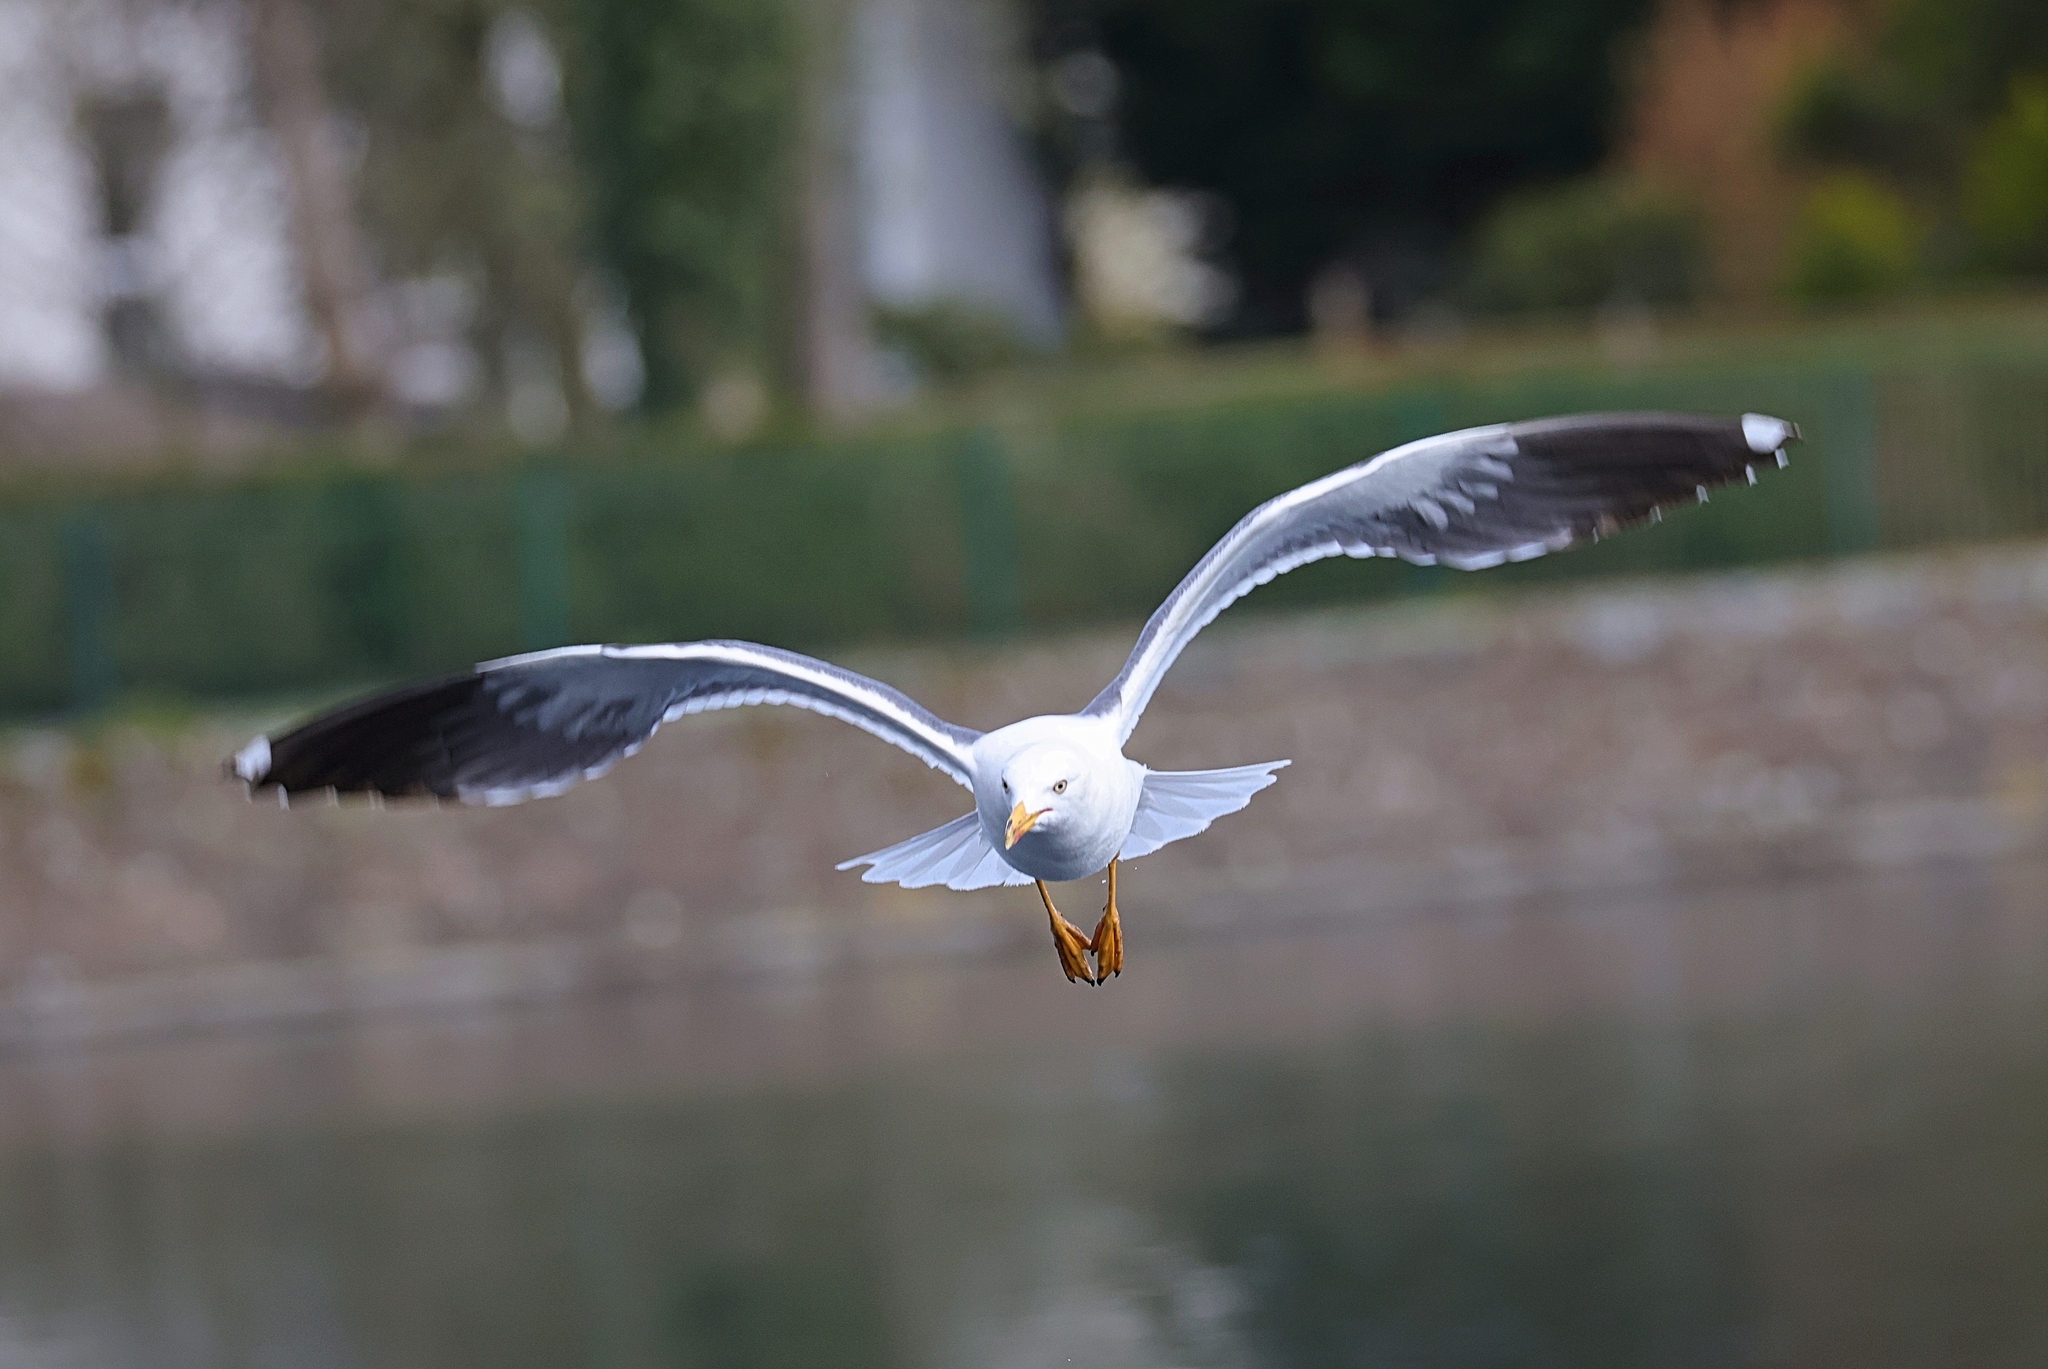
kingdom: Animalia
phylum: Chordata
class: Aves
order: Charadriiformes
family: Laridae
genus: Larus
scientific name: Larus fuscus
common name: Lesser black-backed gull
